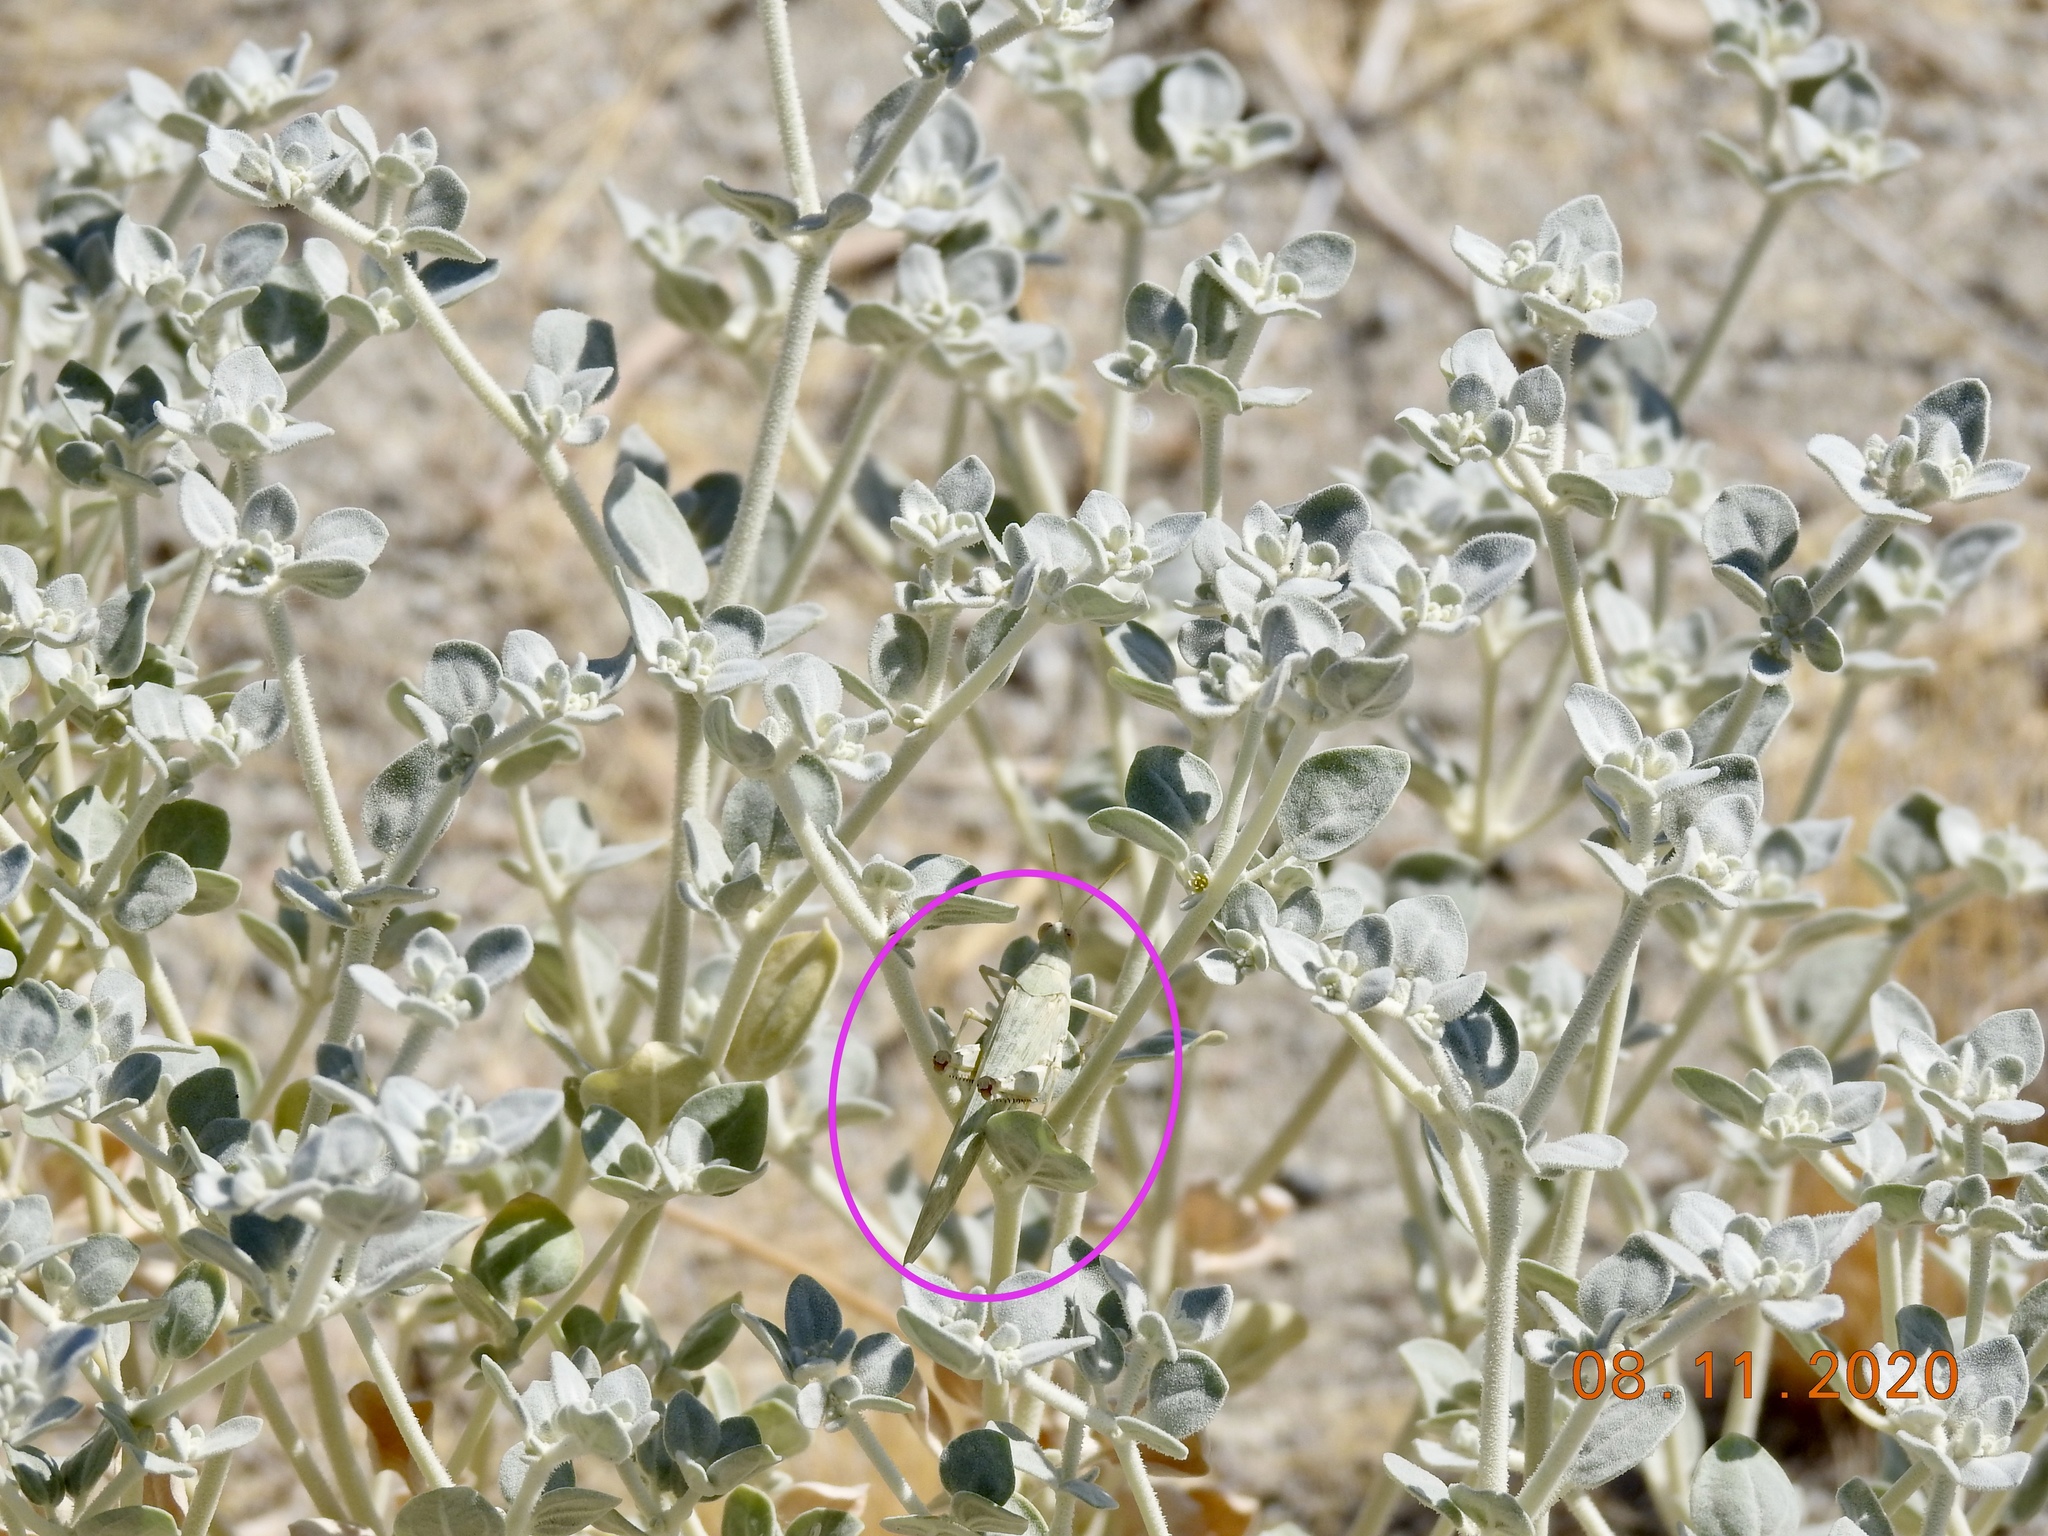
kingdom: Animalia
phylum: Arthropoda
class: Insecta
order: Orthoptera
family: Acrididae
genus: Anconia
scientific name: Anconia integra
